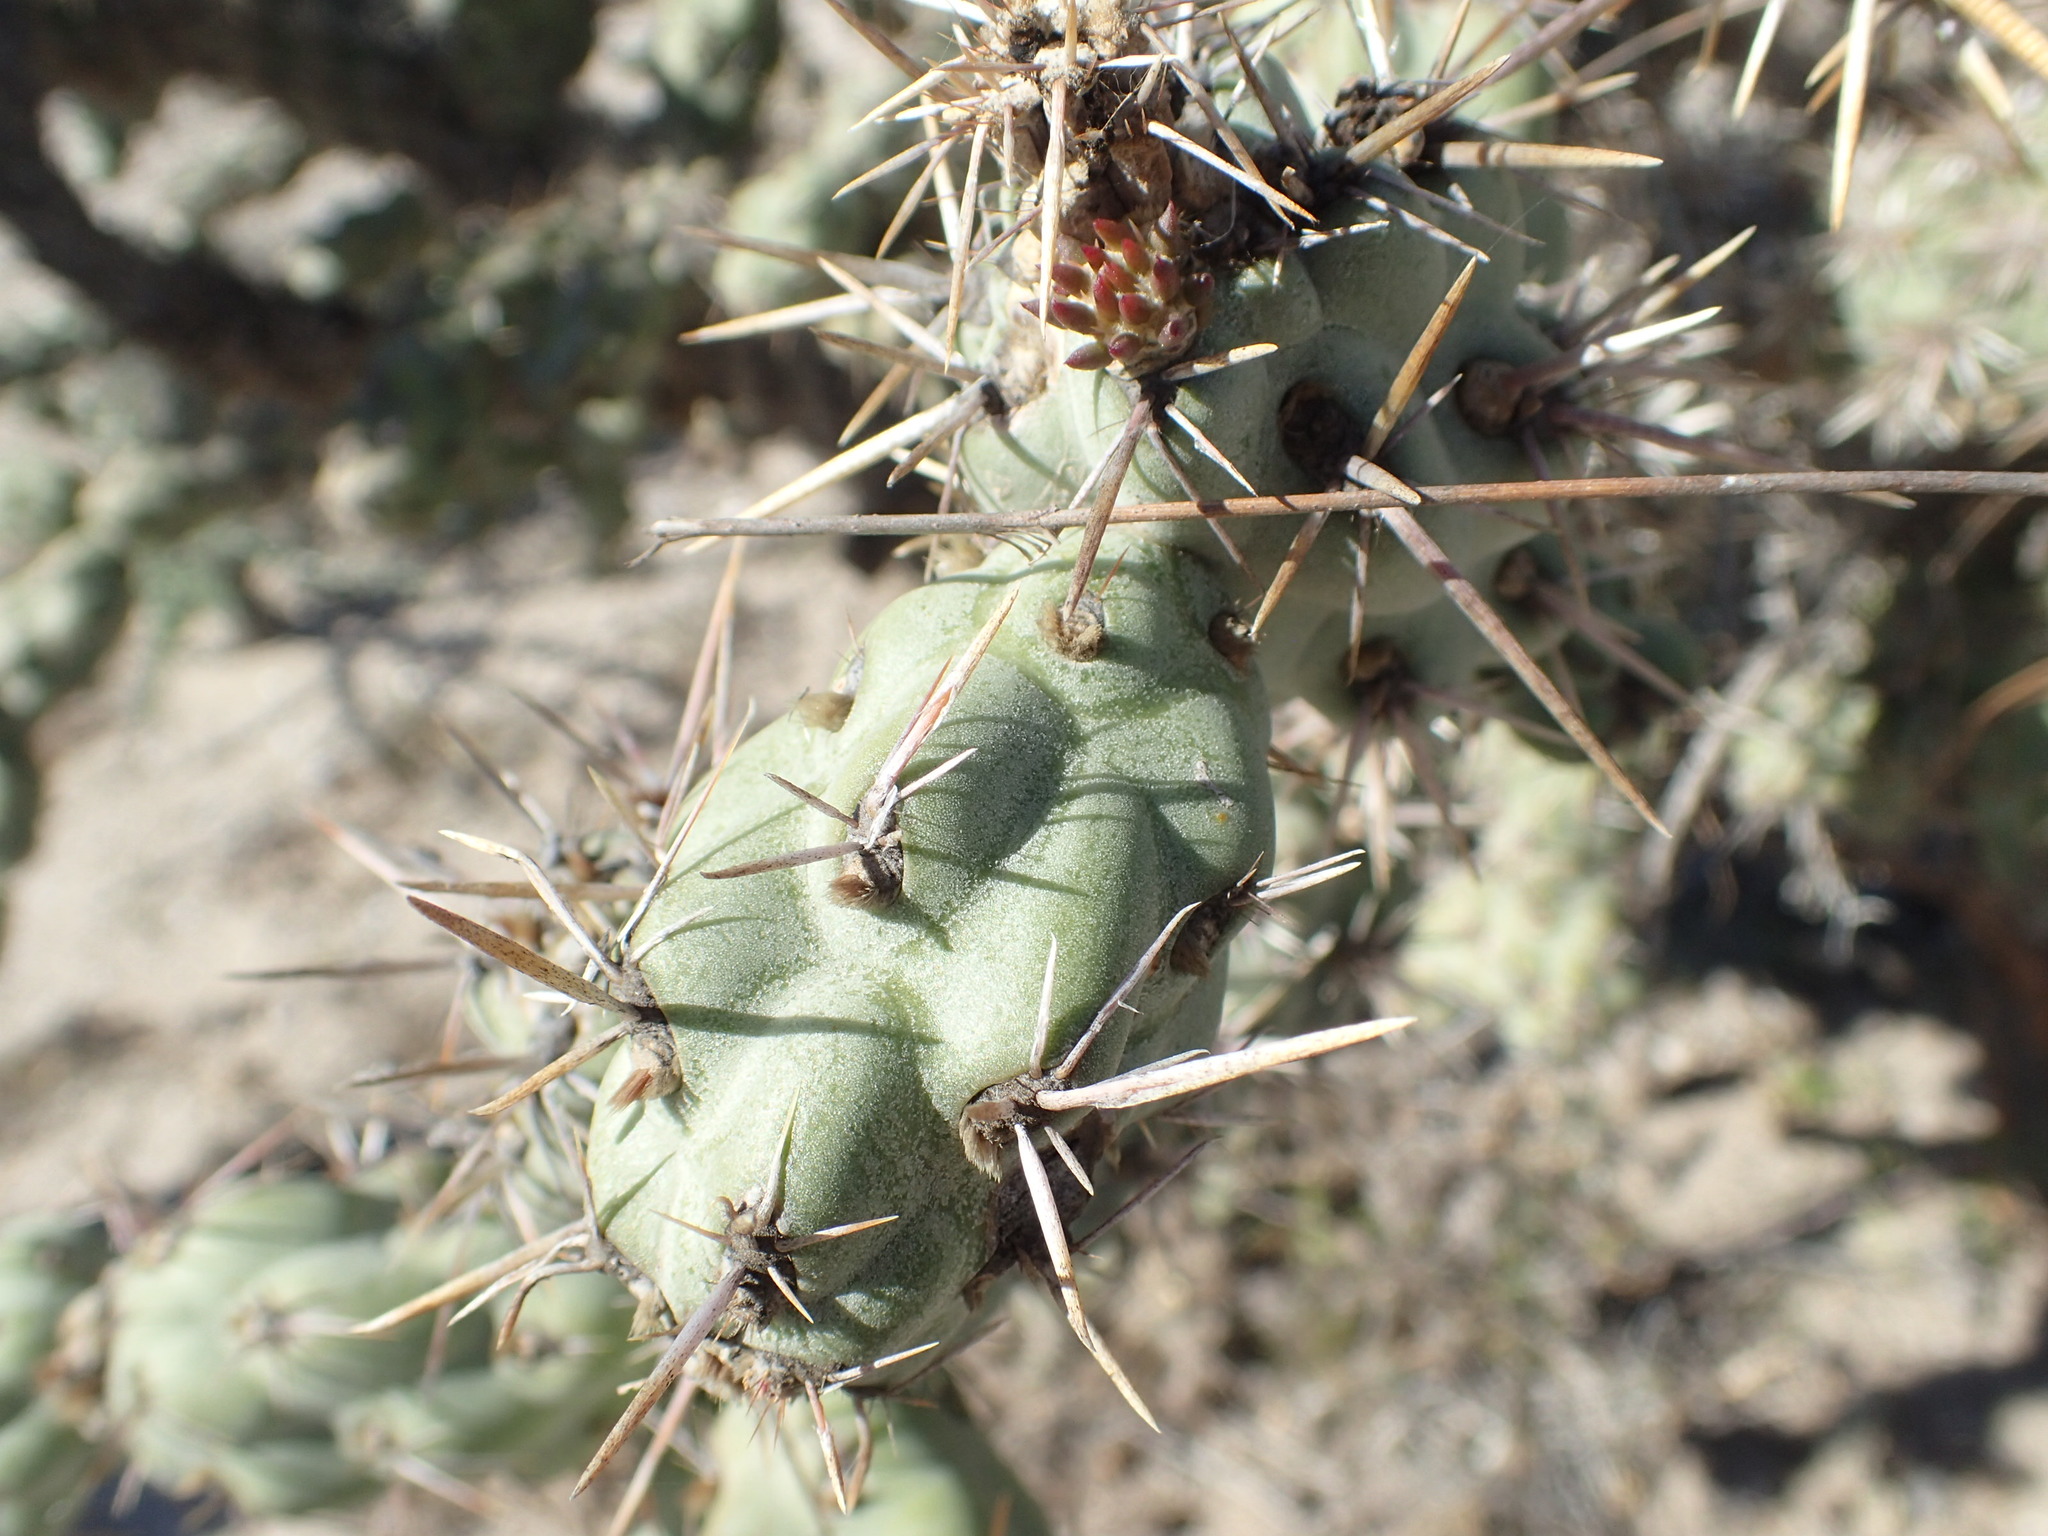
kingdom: Plantae
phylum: Tracheophyta
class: Magnoliopsida
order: Caryophyllales
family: Cactaceae
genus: Cylindropuntia
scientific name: Cylindropuntia cholla
